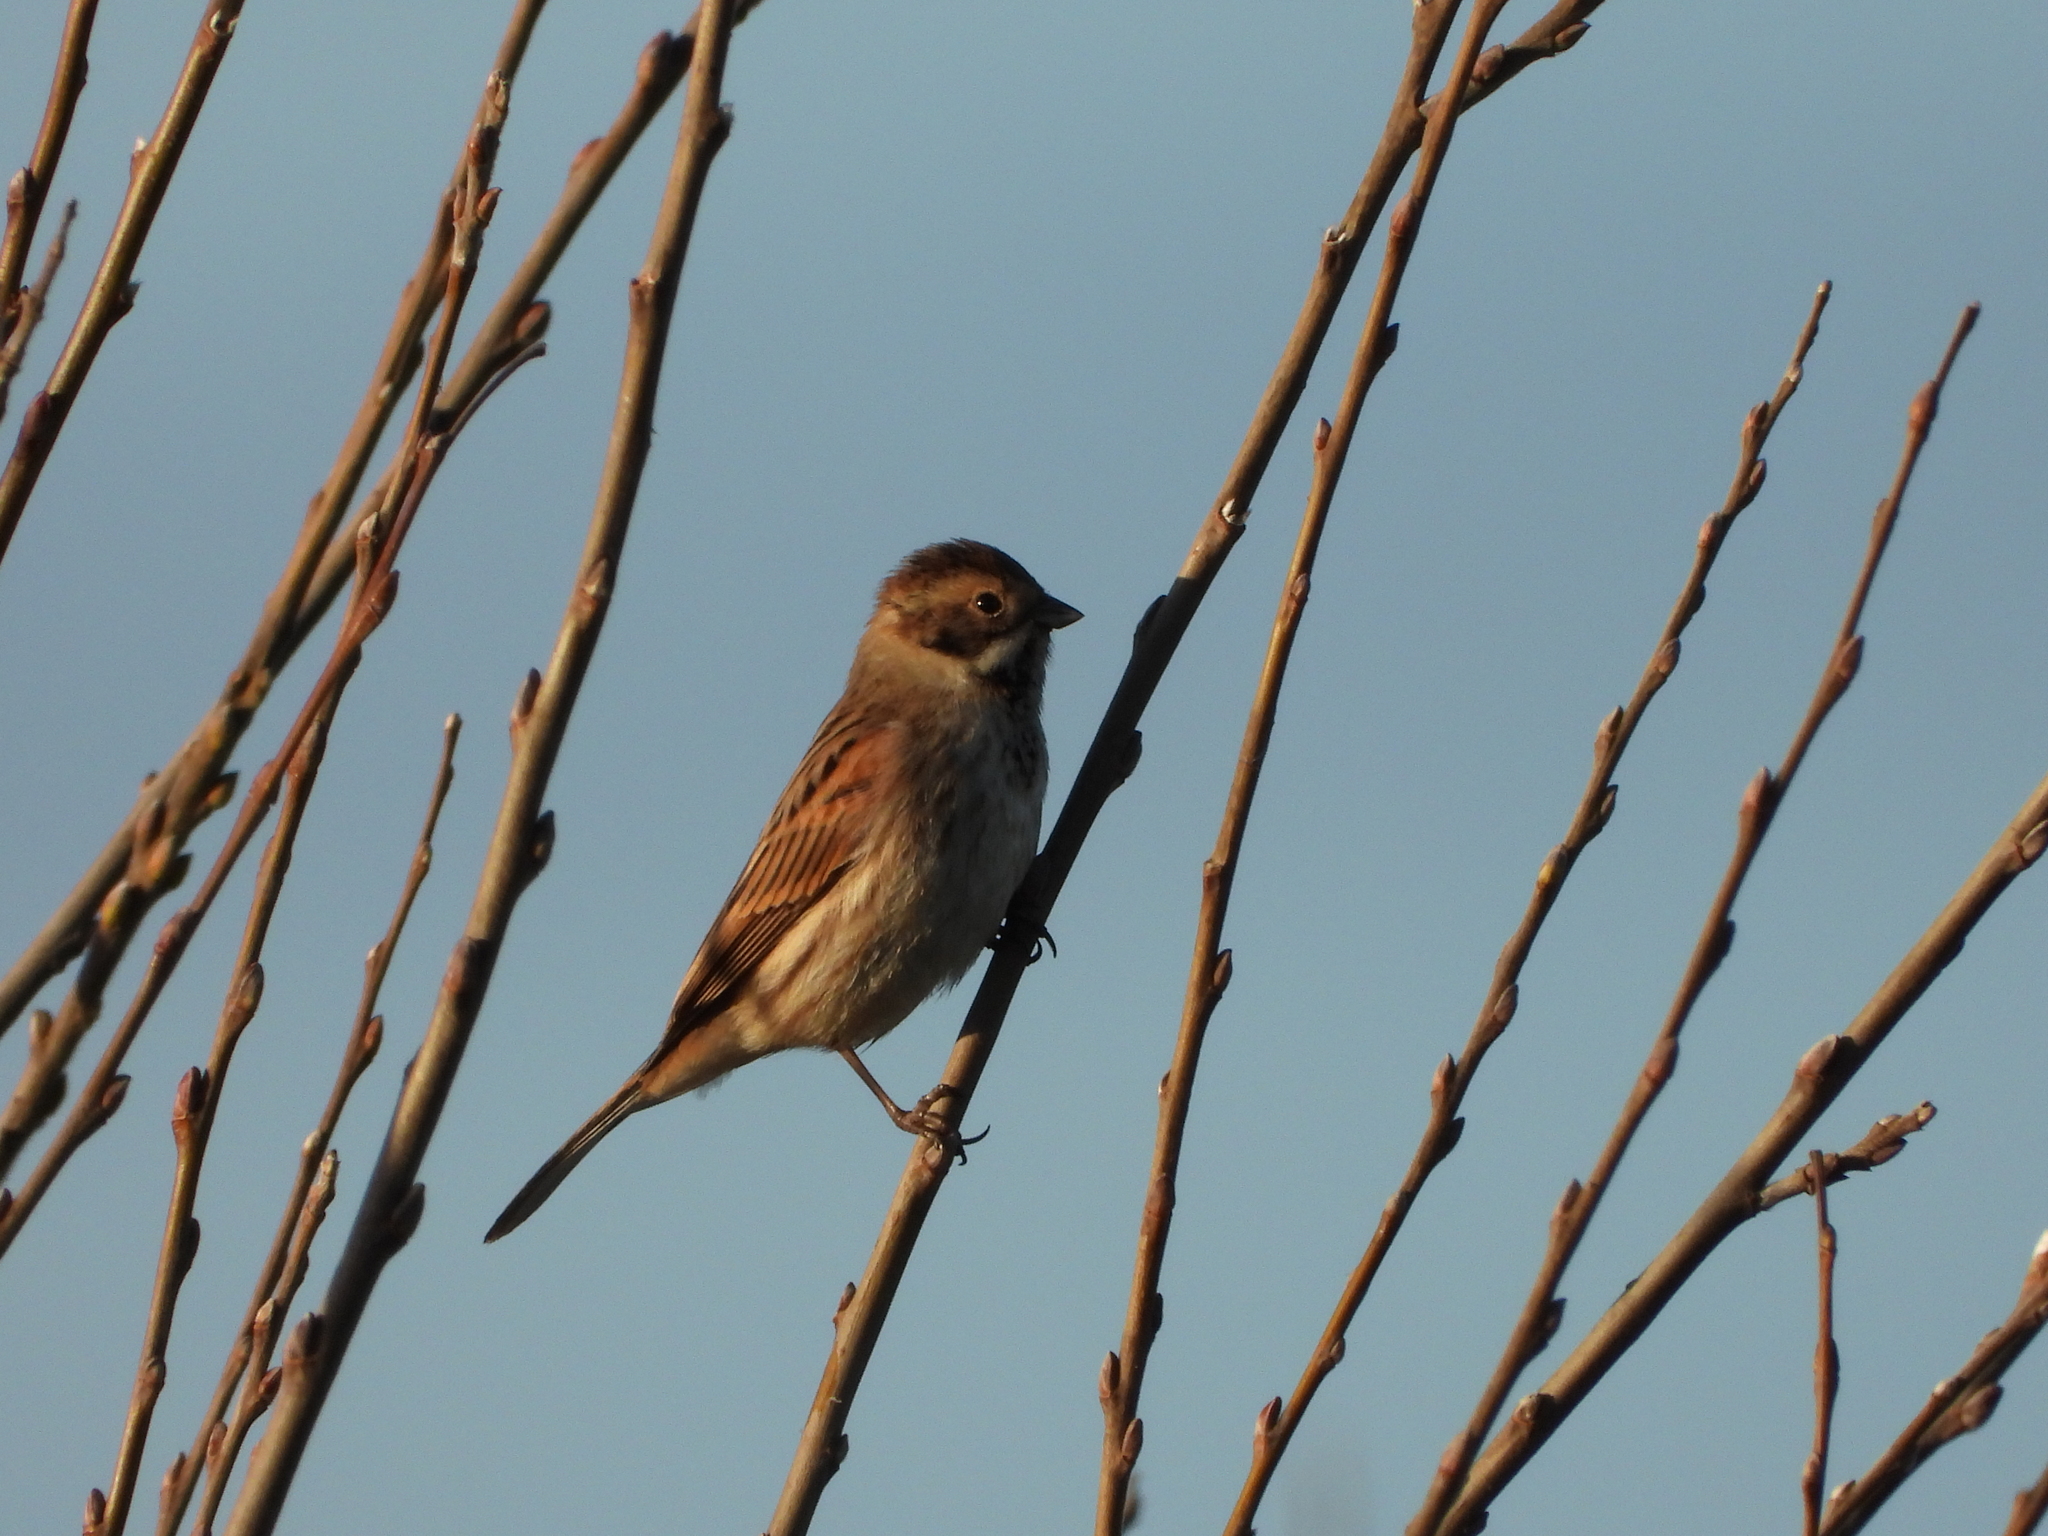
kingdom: Animalia
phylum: Chordata
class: Aves
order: Passeriformes
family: Emberizidae
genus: Emberiza
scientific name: Emberiza schoeniclus
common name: Reed bunting
